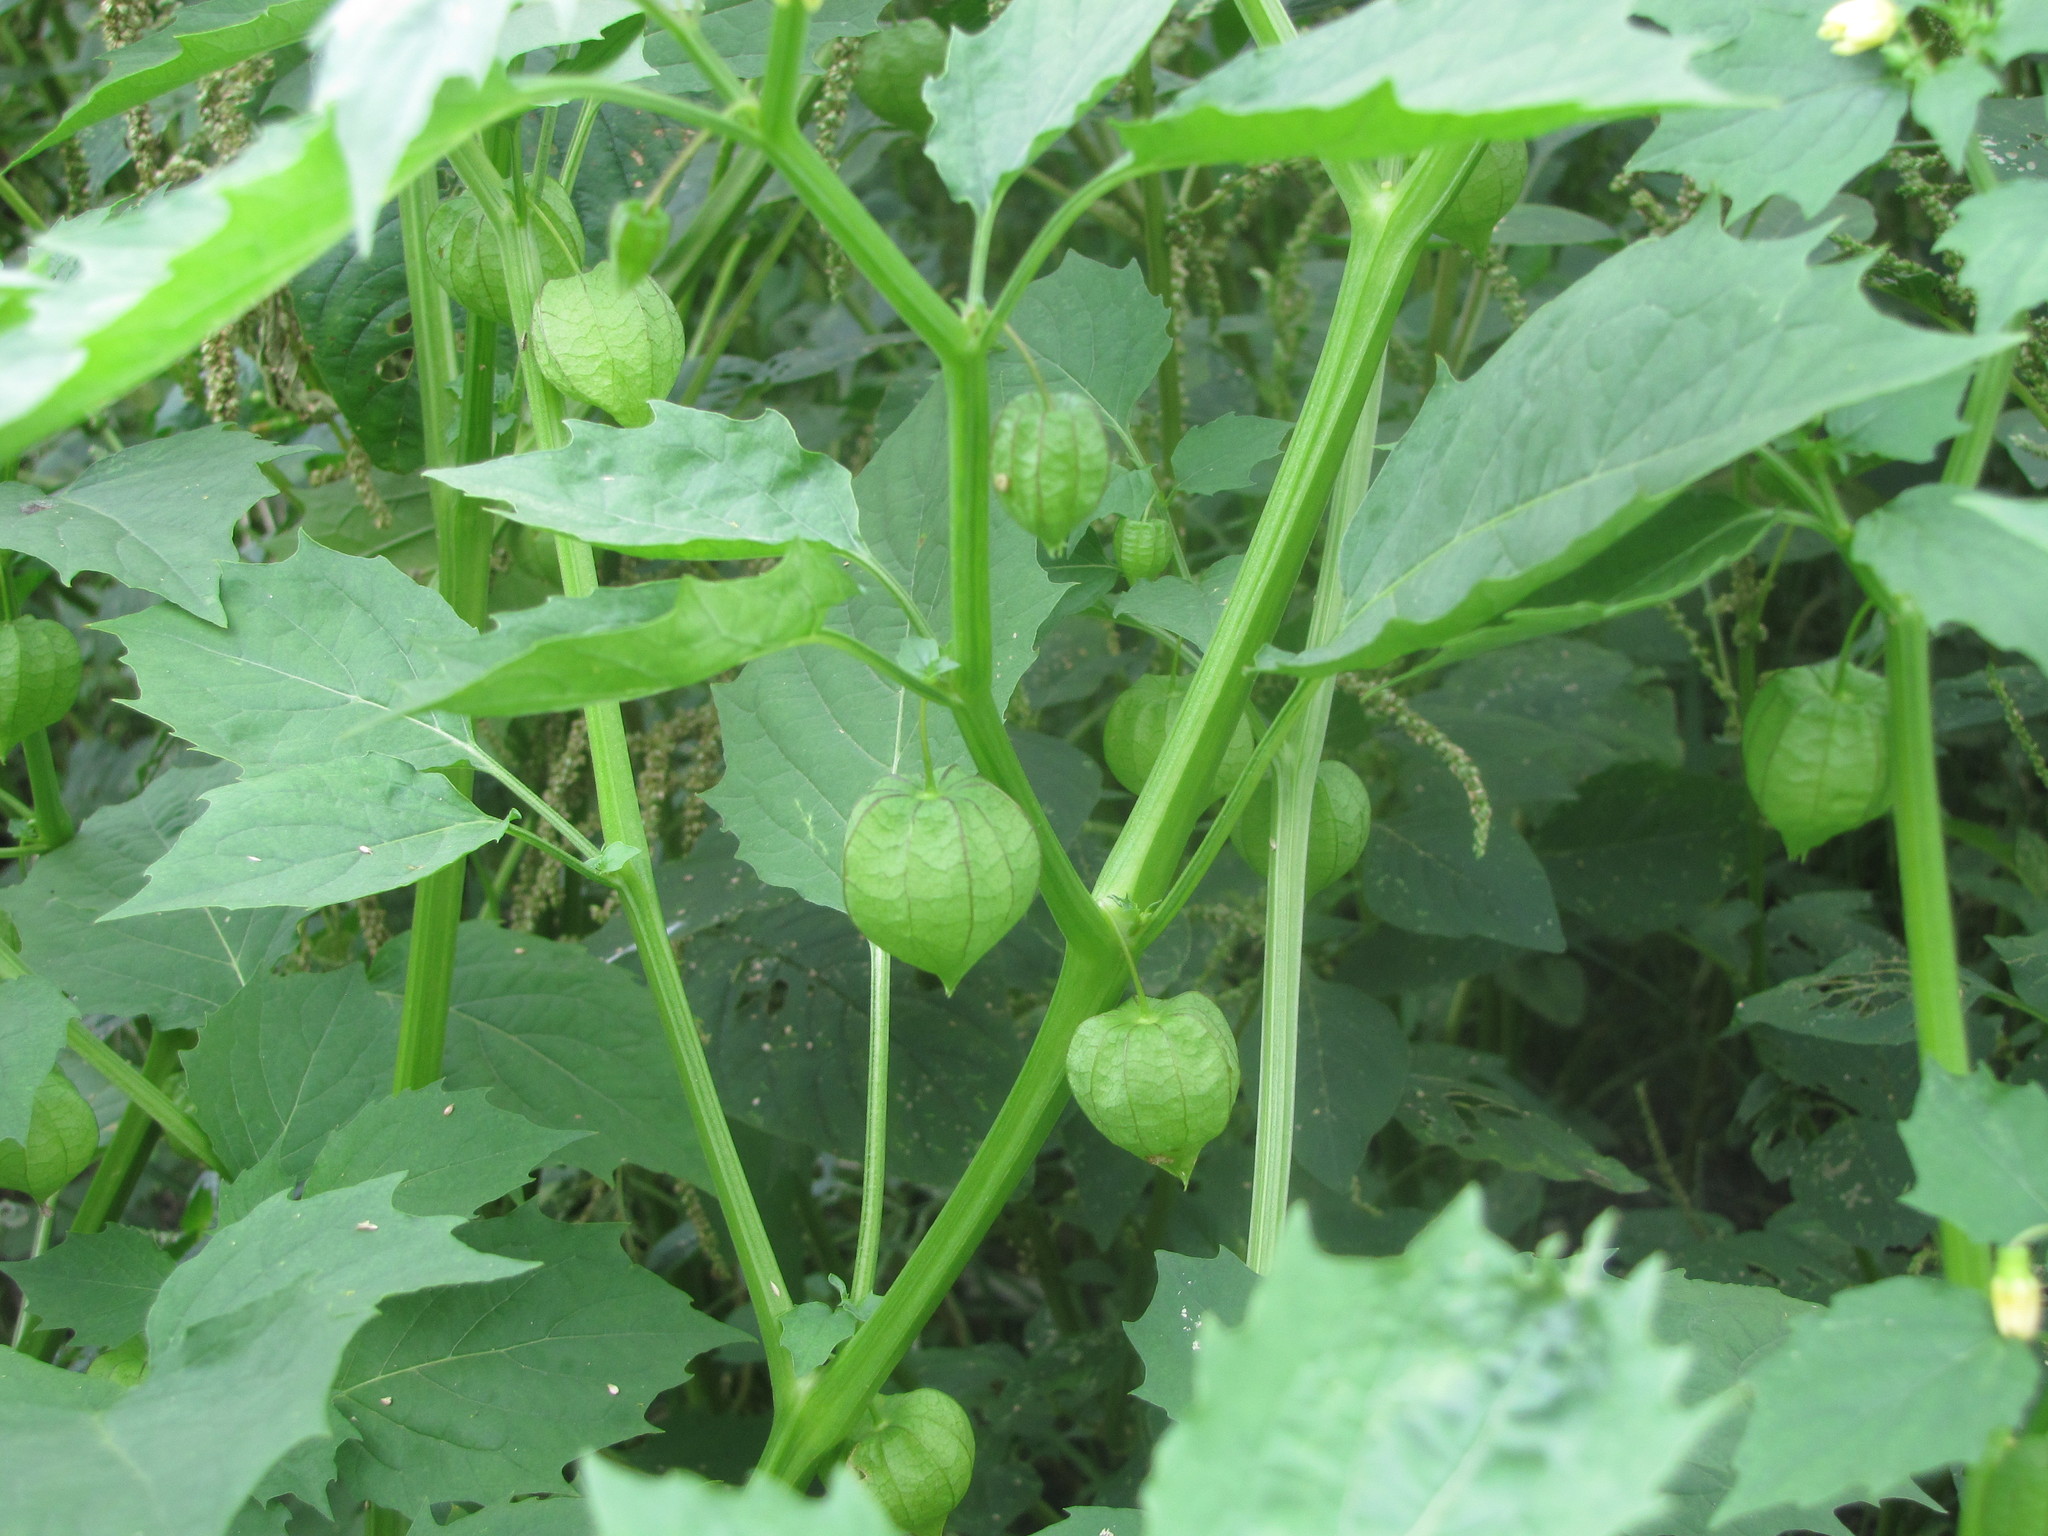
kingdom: Plantae
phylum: Tracheophyta
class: Magnoliopsida
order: Solanales
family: Solanaceae
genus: Physalis
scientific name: Physalis angulata
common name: Angular winter-cherry
